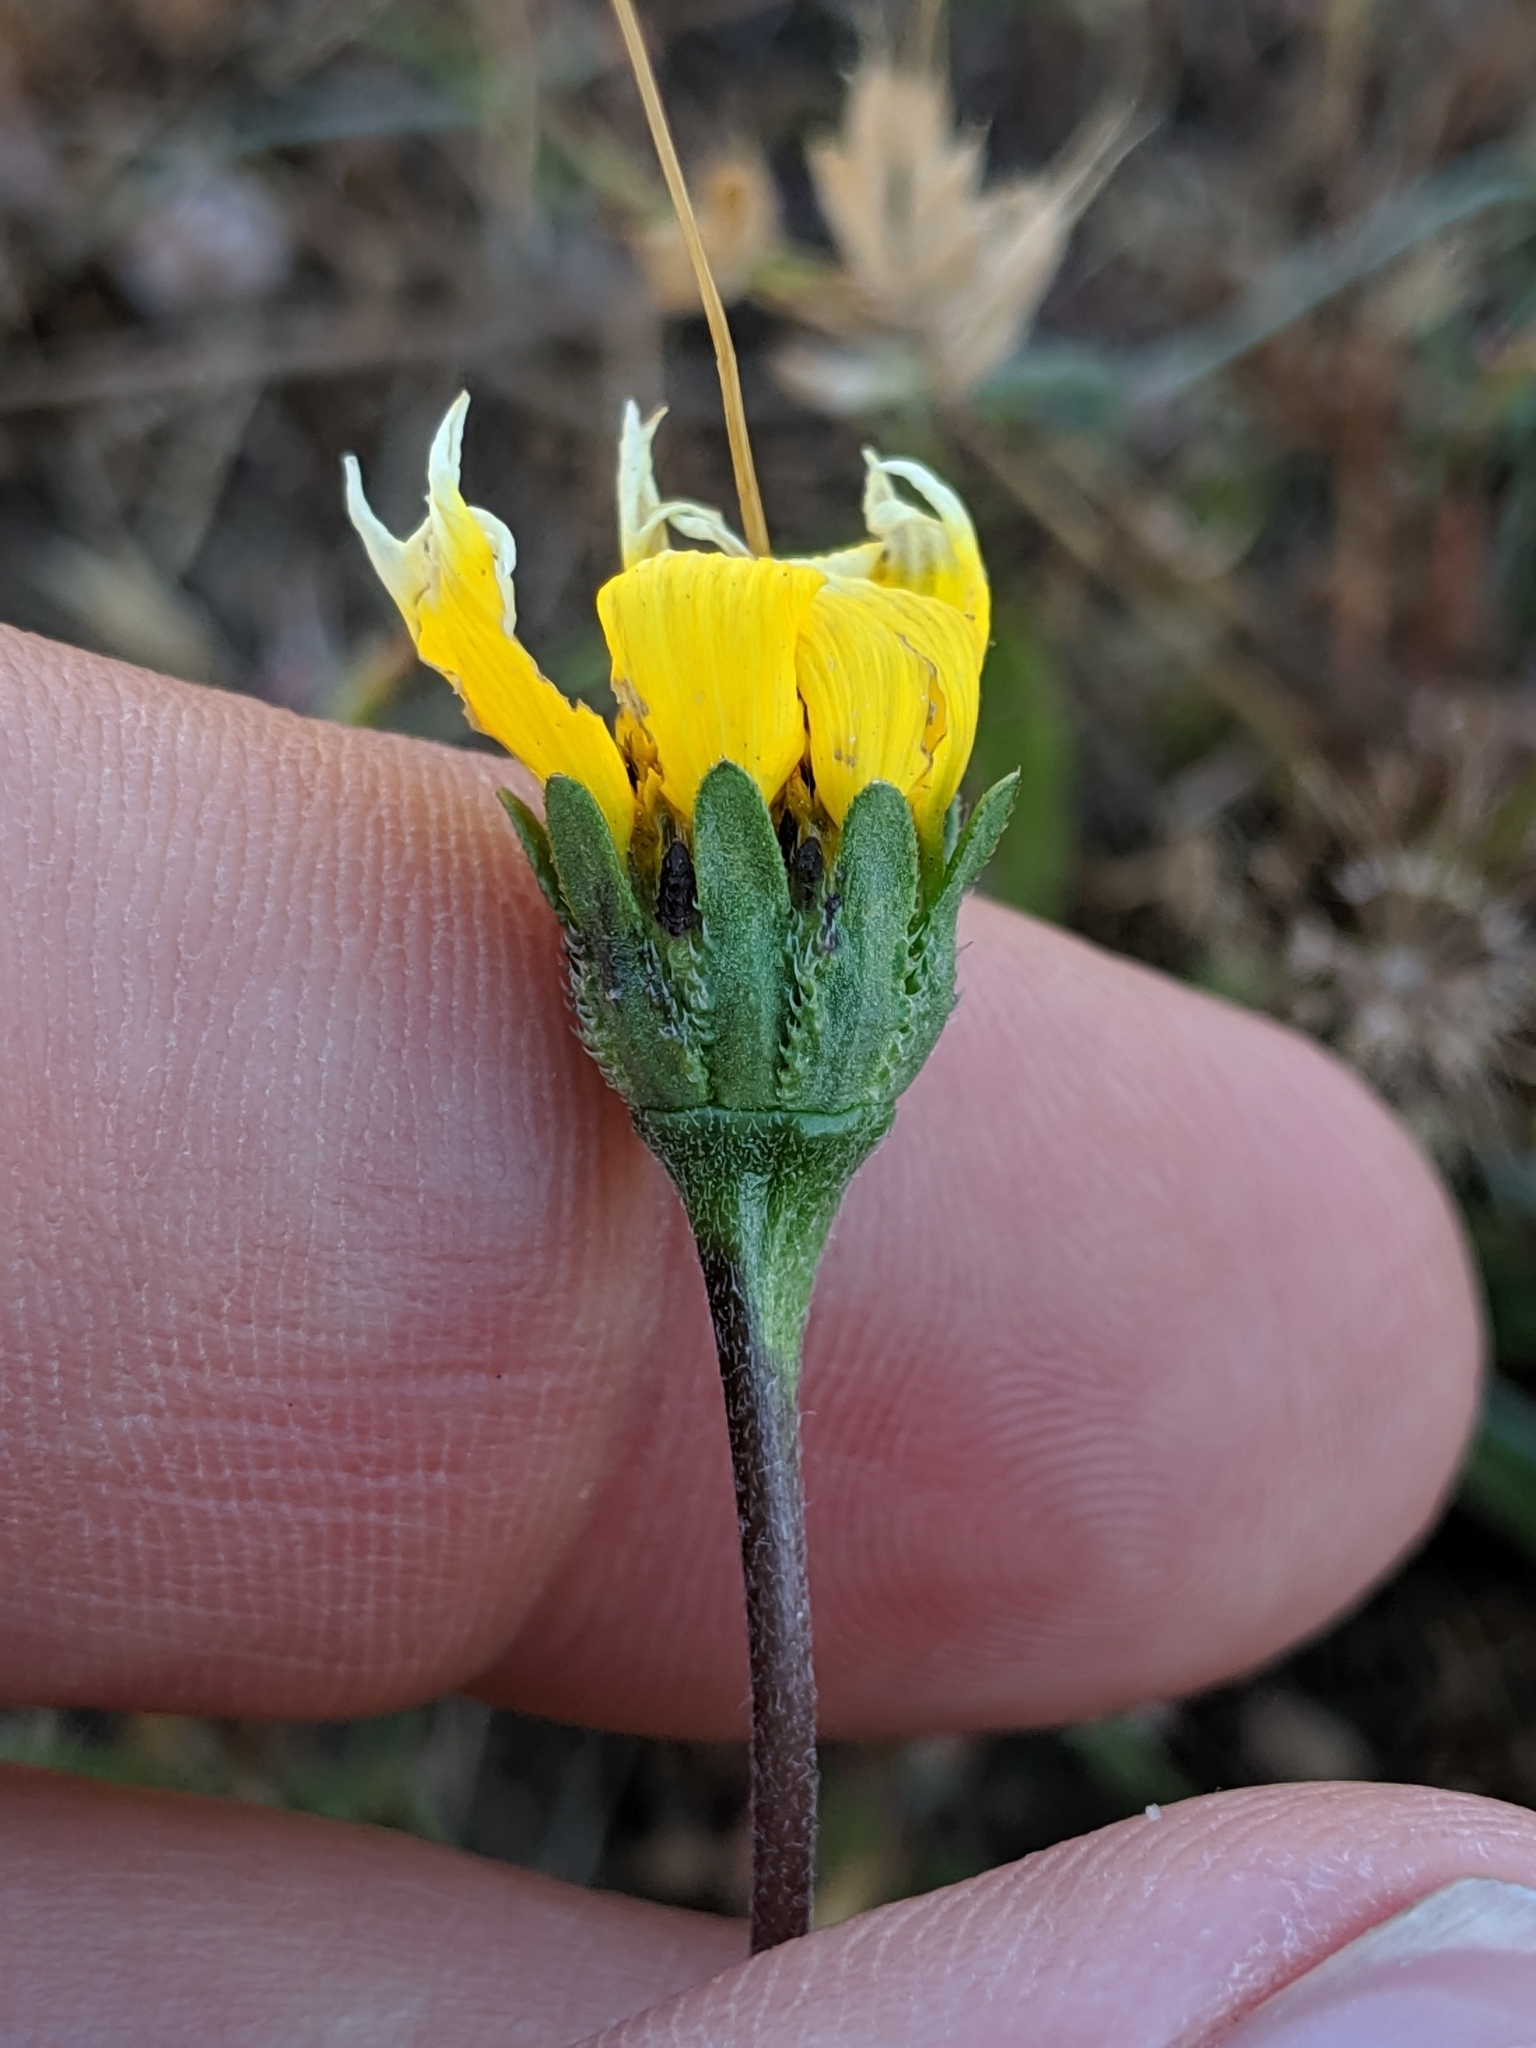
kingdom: Plantae
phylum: Tracheophyta
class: Magnoliopsida
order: Asterales
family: Asteraceae
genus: Layia
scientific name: Layia chrysanthemoides
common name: Smooth layia
